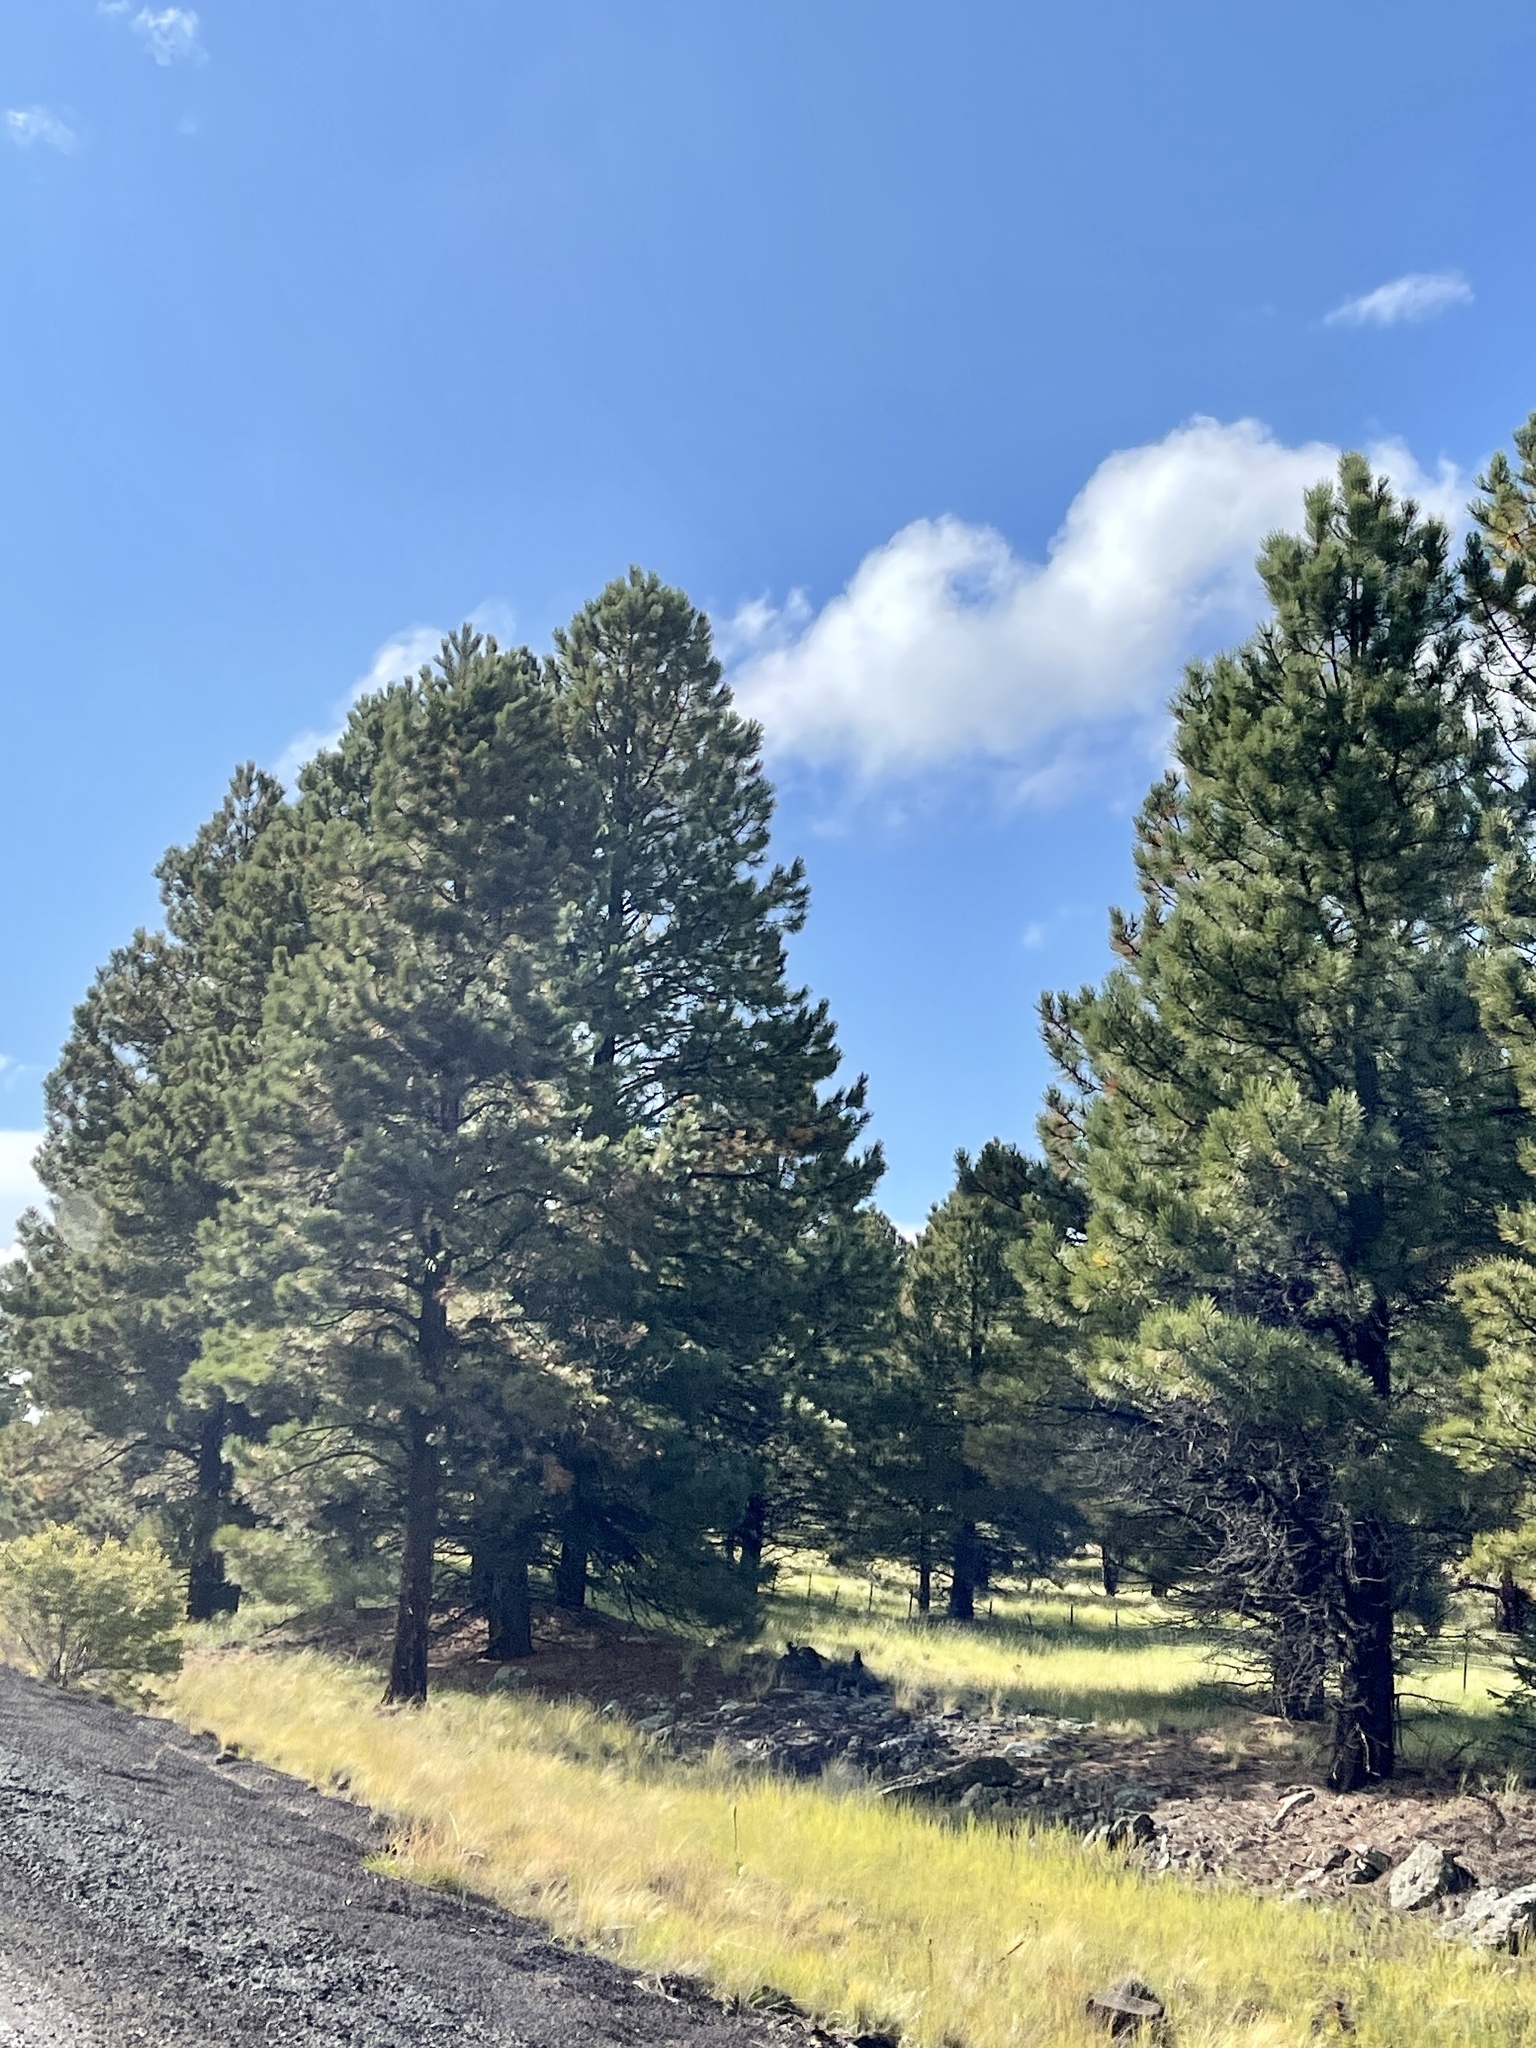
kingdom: Plantae
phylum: Tracheophyta
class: Pinopsida
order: Pinales
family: Pinaceae
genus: Pinus
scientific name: Pinus ponderosa
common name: Western yellow-pine
